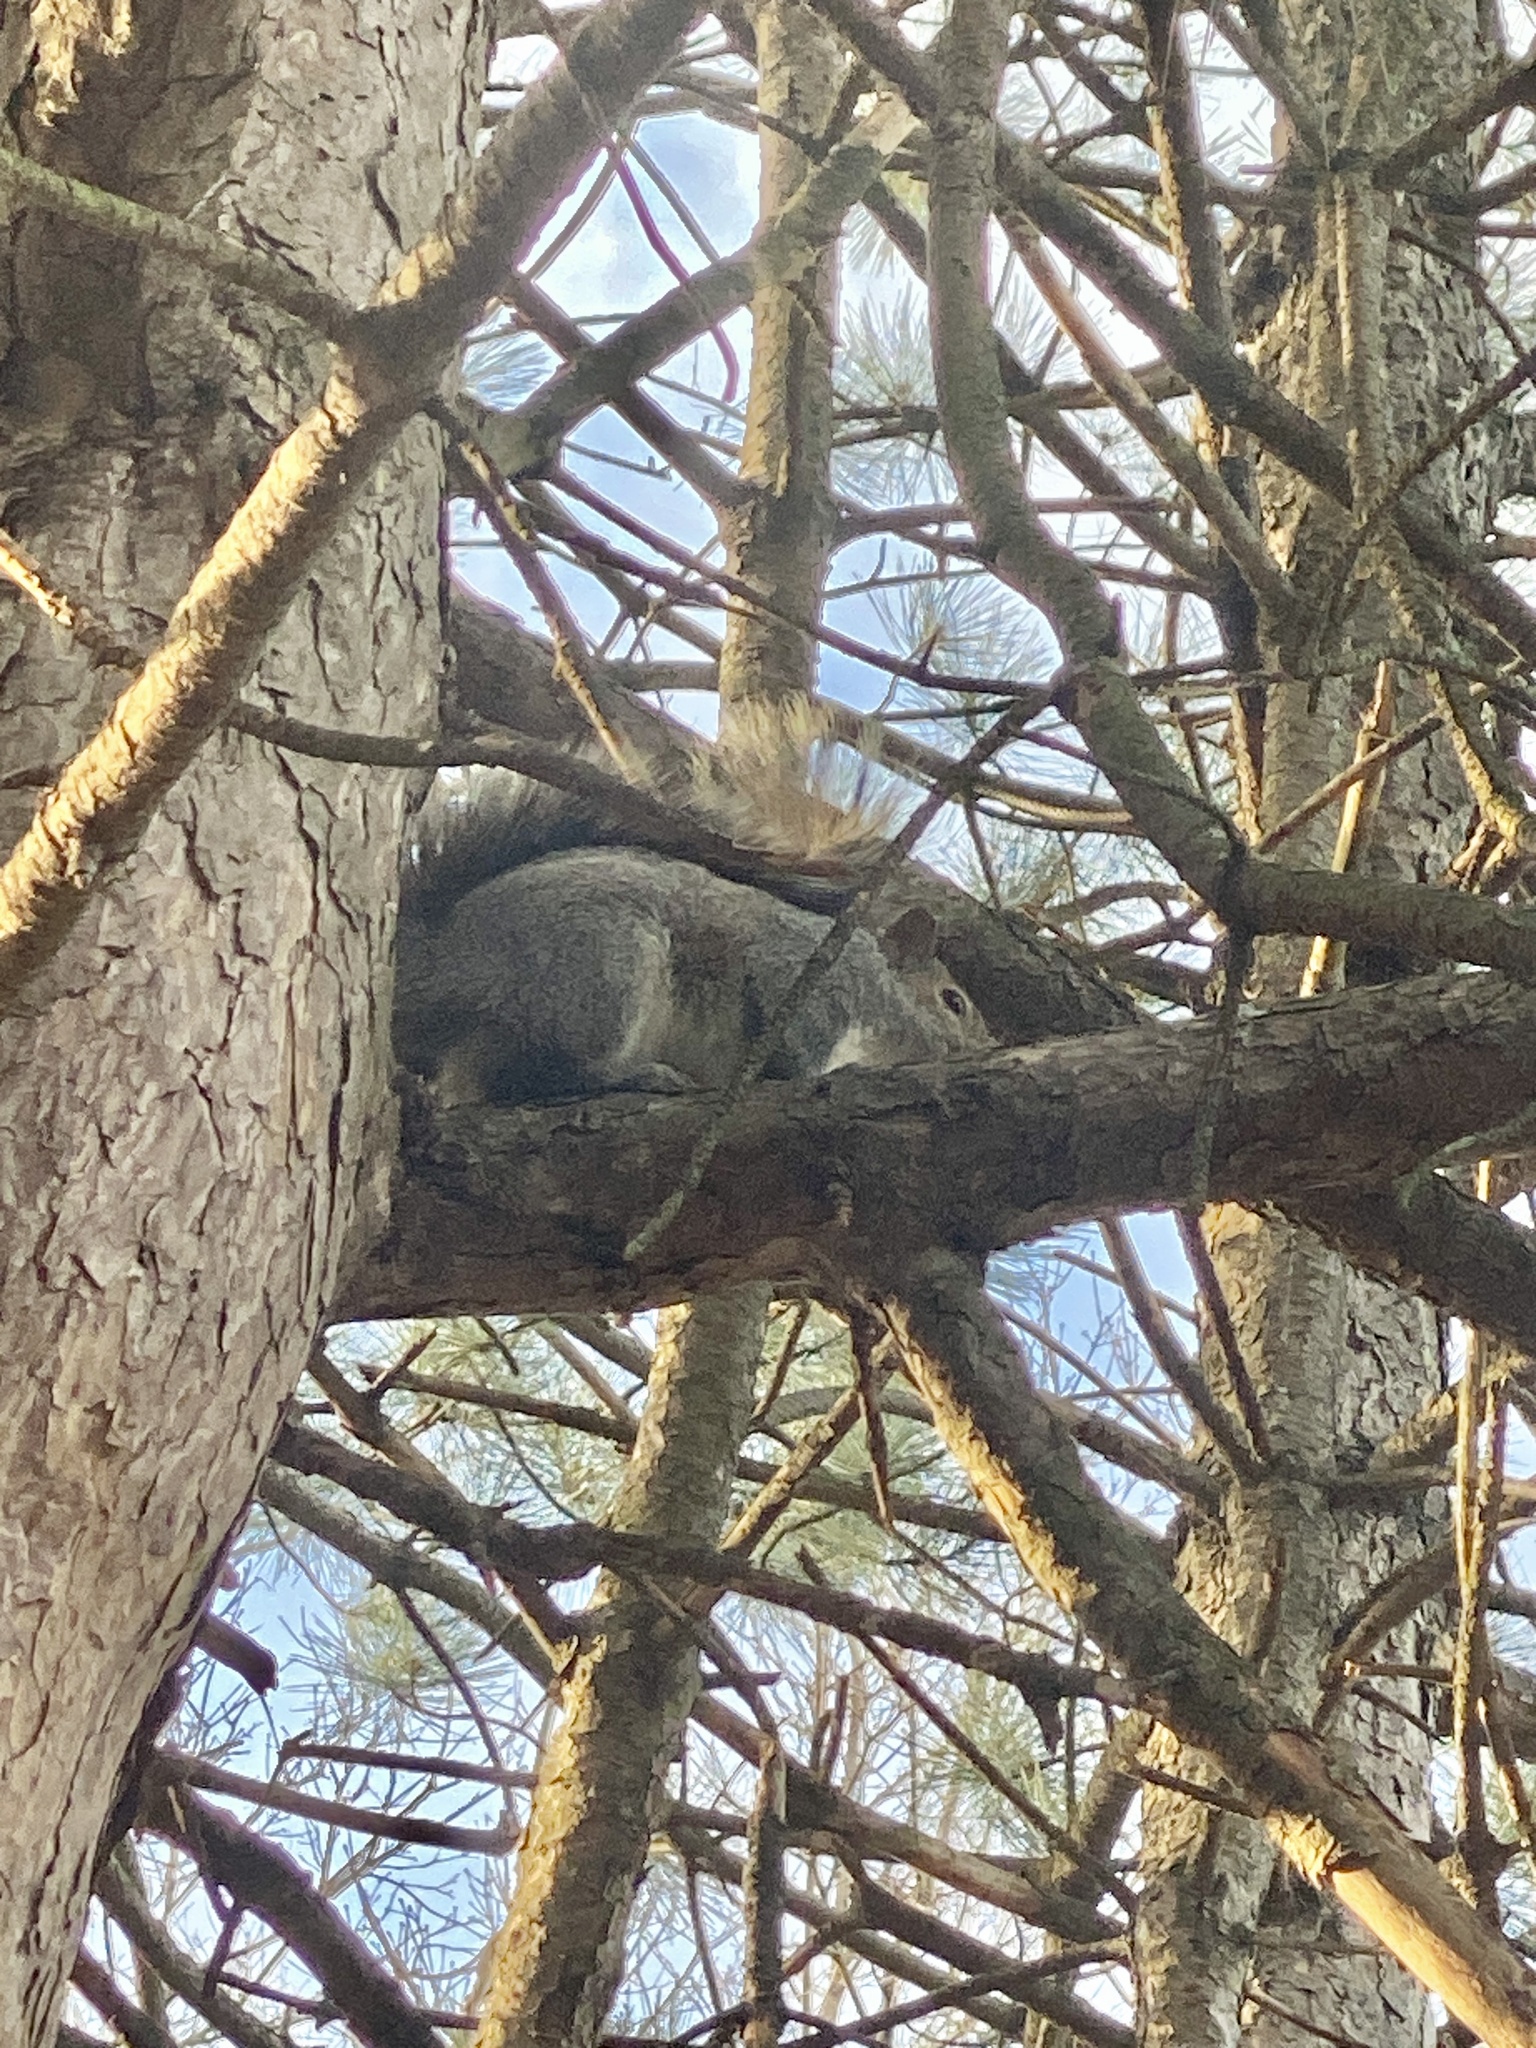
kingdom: Animalia
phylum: Chordata
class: Mammalia
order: Rodentia
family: Sciuridae
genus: Sciurus
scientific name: Sciurus carolinensis
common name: Eastern gray squirrel
